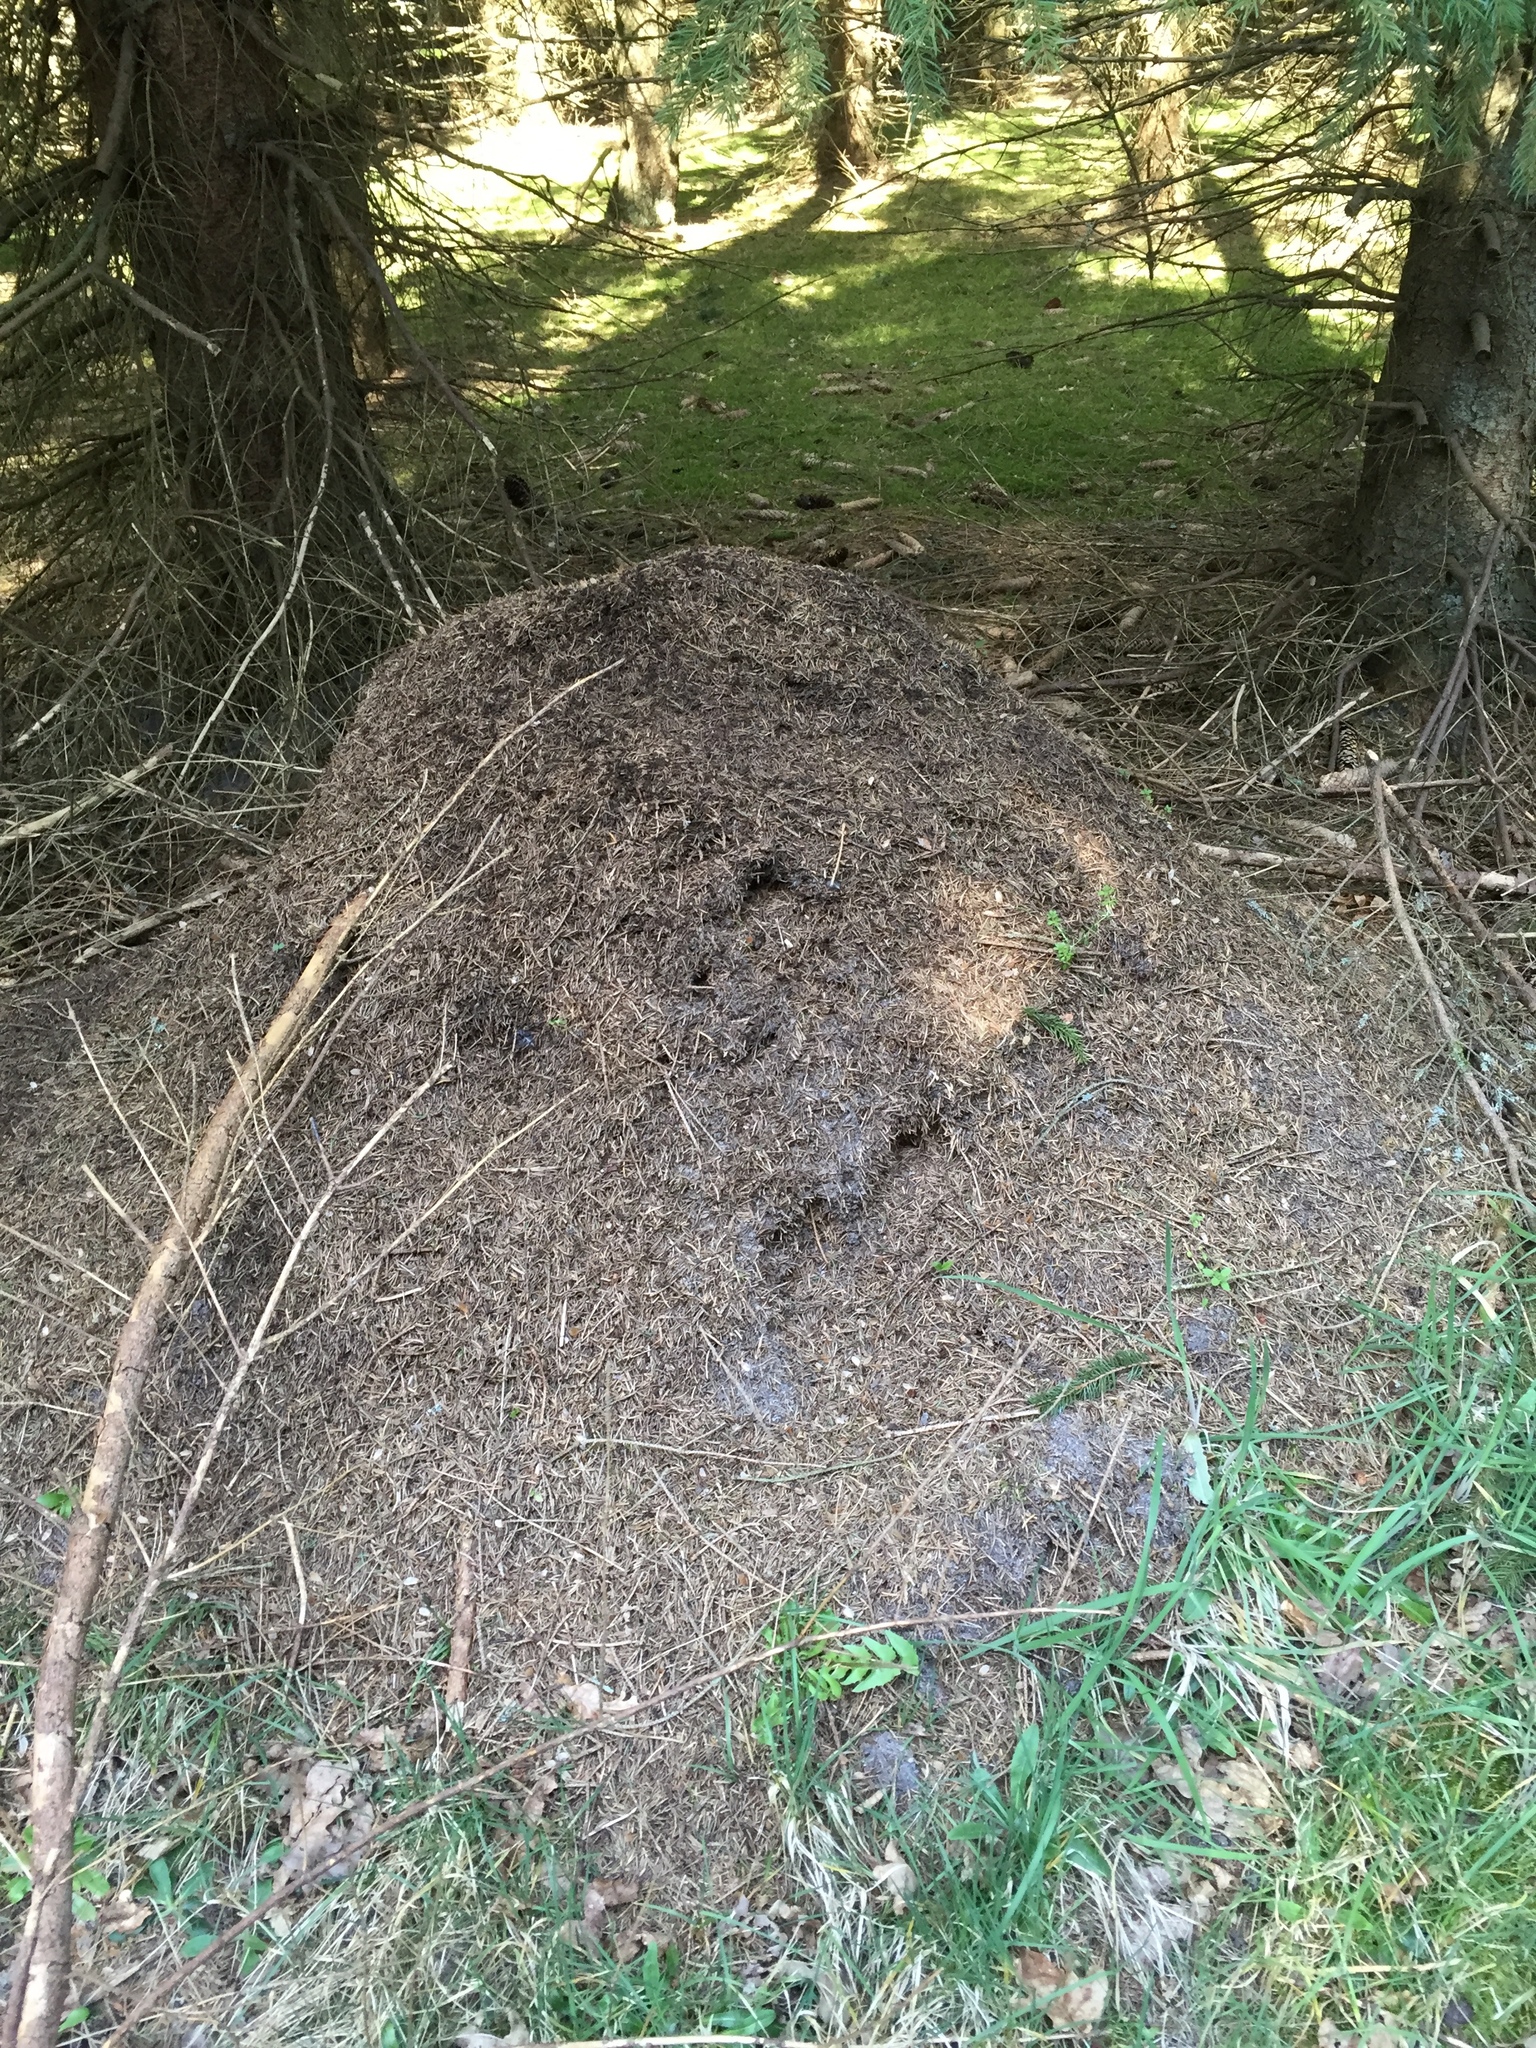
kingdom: Animalia
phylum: Arthropoda
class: Insecta
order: Hymenoptera
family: Formicidae
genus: Formica
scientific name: Formica rufa
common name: Red wood ant
